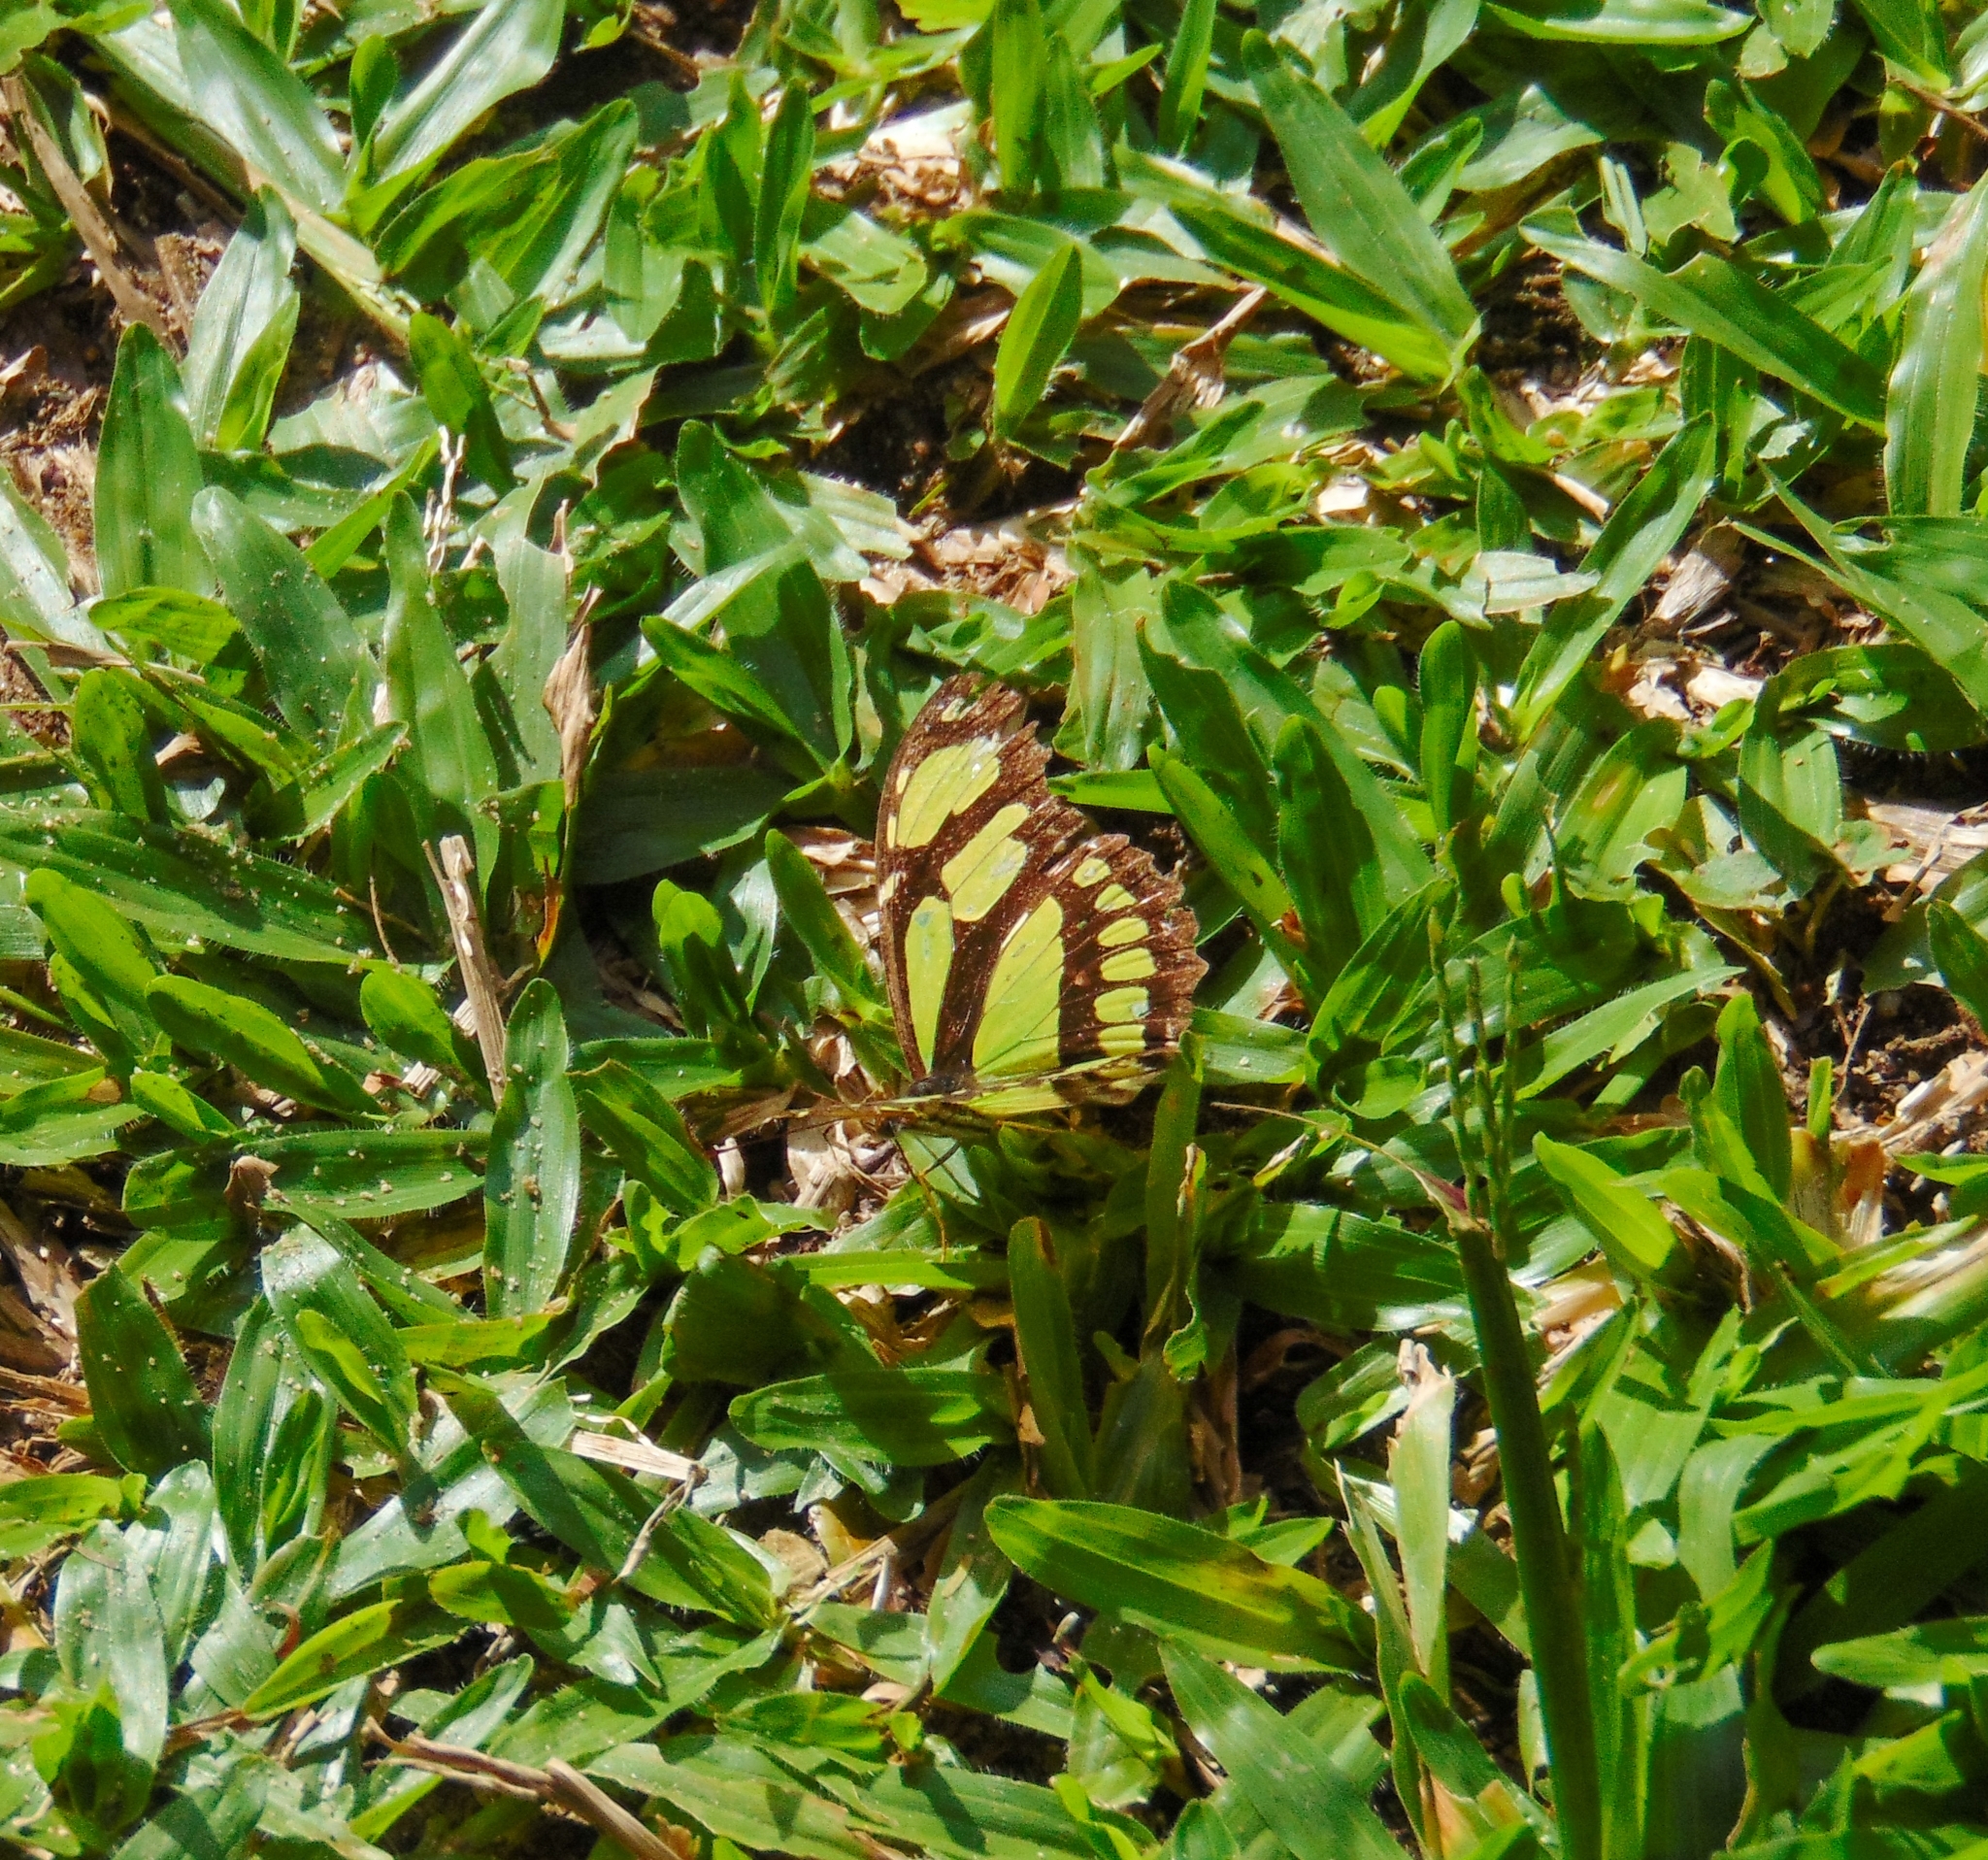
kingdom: Animalia
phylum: Arthropoda
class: Insecta
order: Lepidoptera
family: Nymphalidae
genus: Philaethria
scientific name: Philaethria dido
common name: Scarce bamboo page
